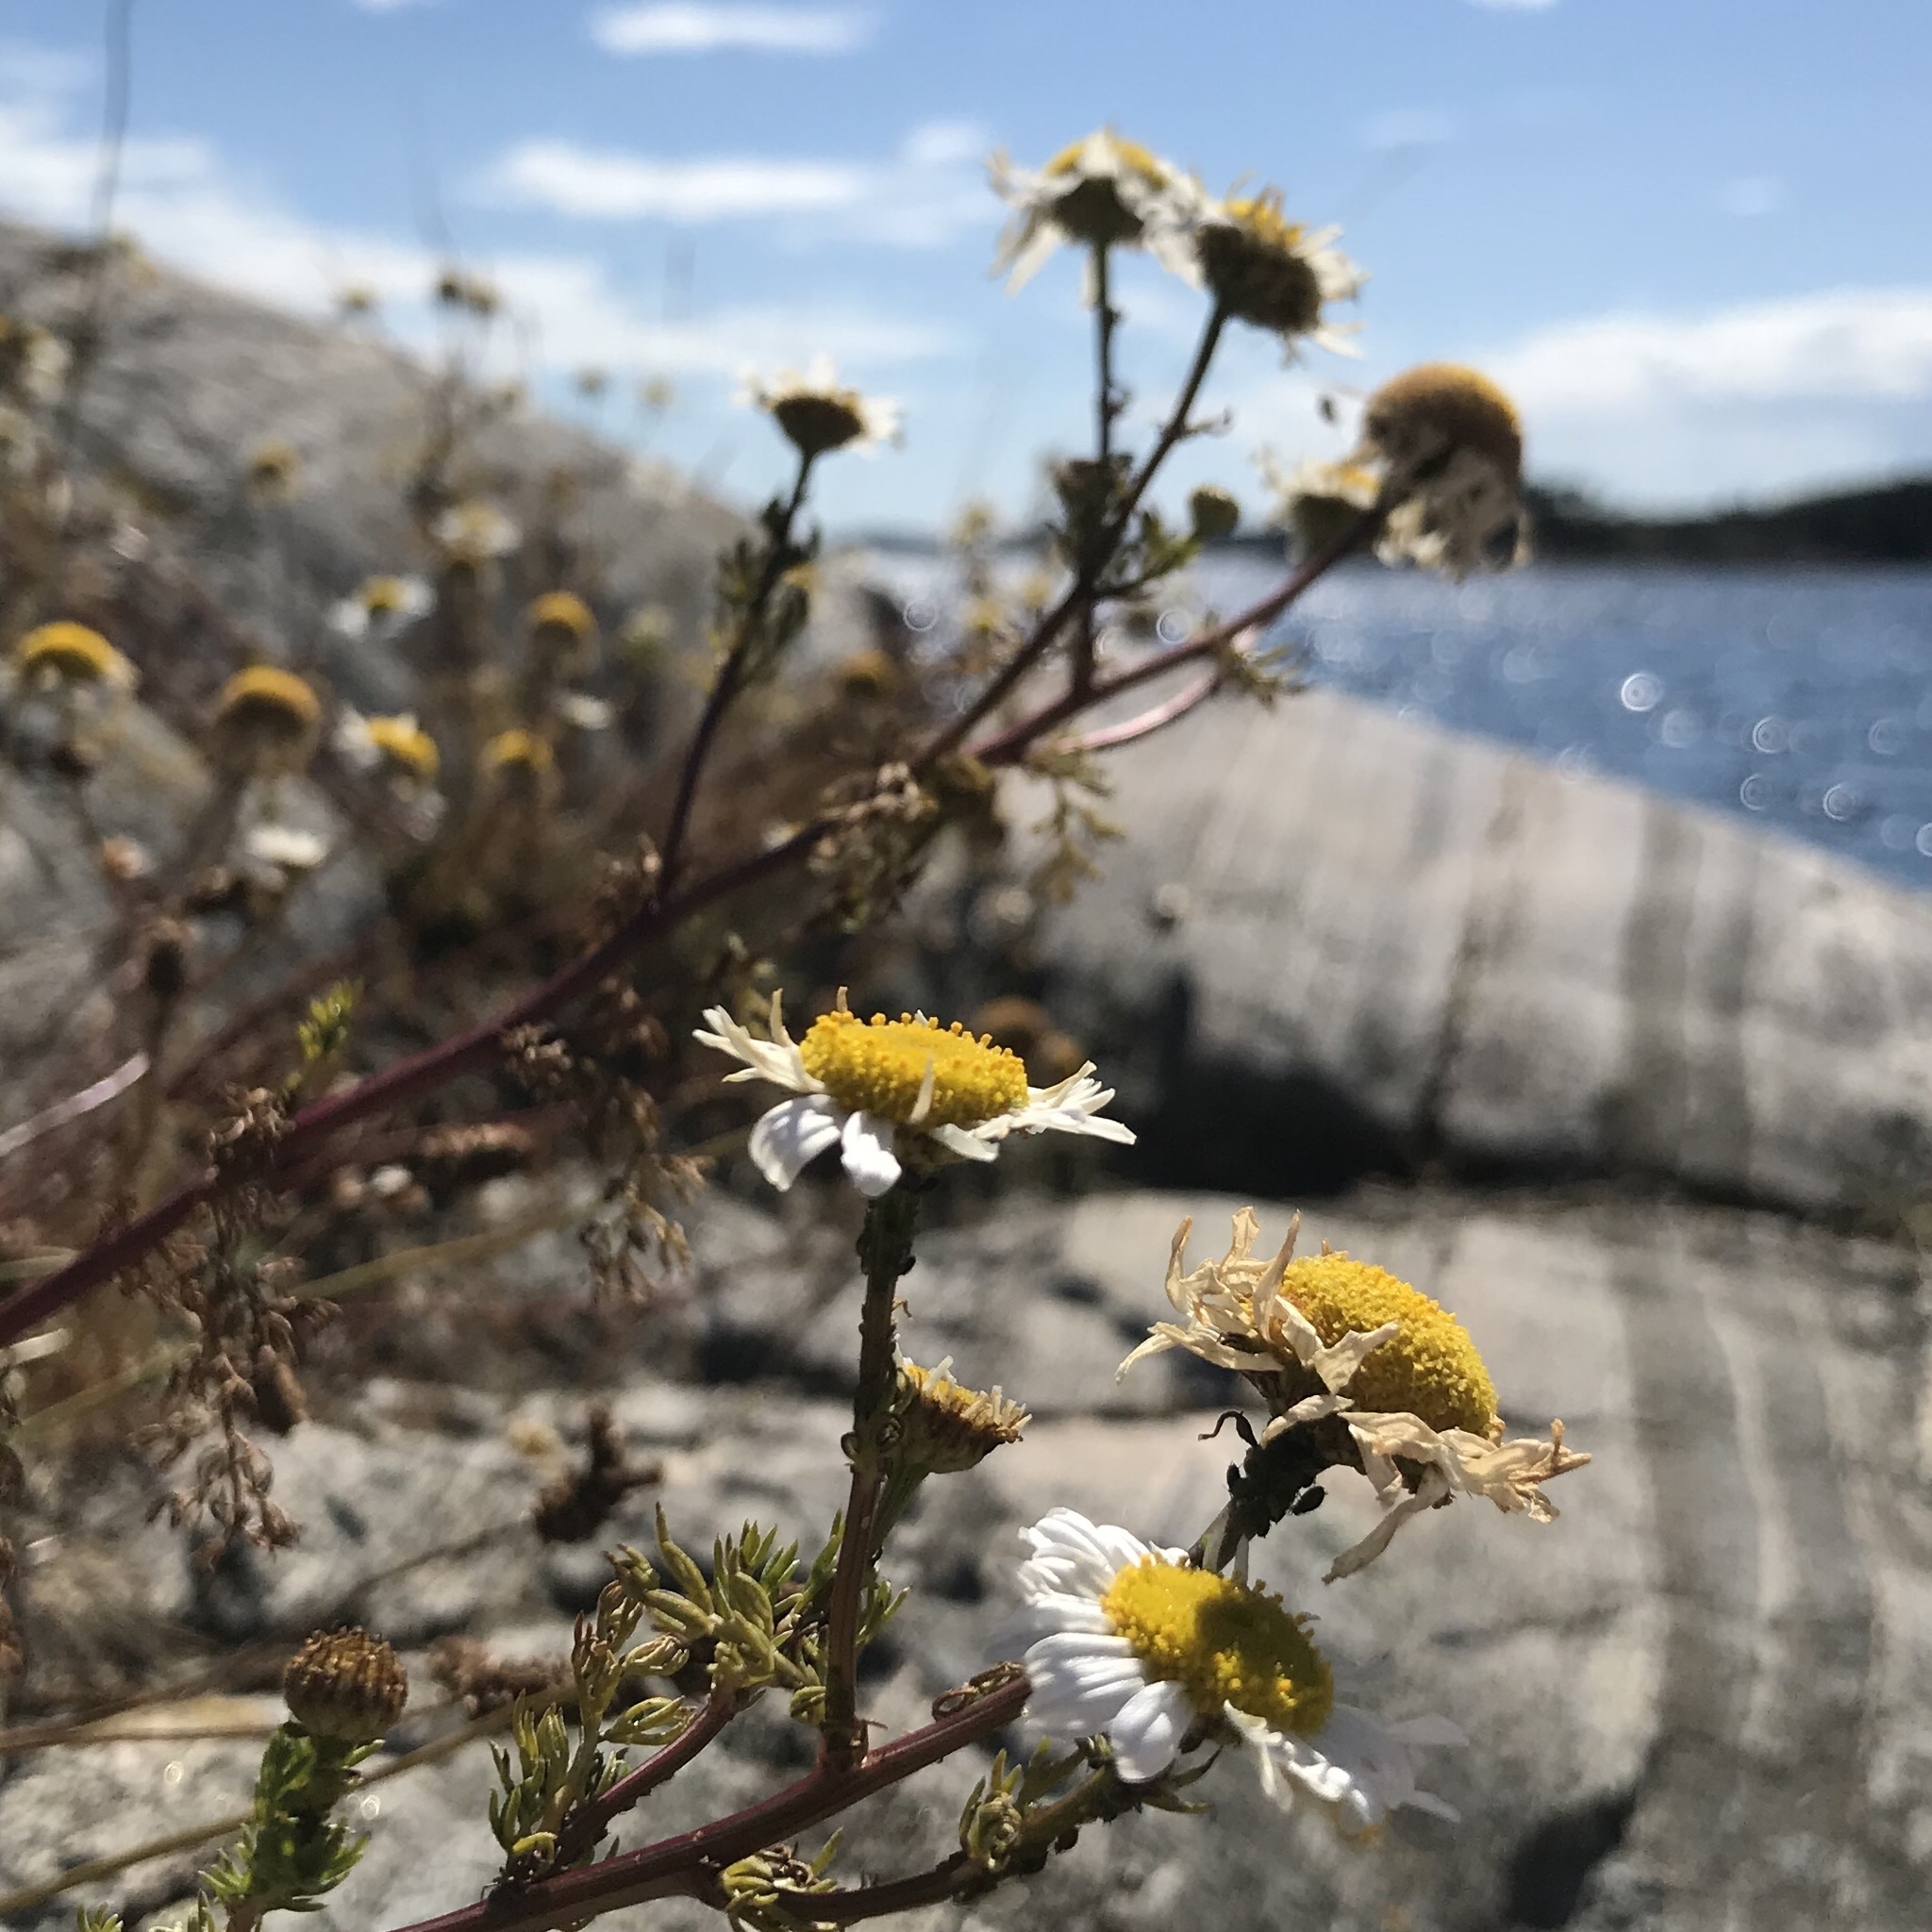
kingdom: Plantae
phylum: Tracheophyta
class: Magnoliopsida
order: Asterales
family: Asteraceae
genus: Tripleurospermum
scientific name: Tripleurospermum maritimum
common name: Sea mayweed
